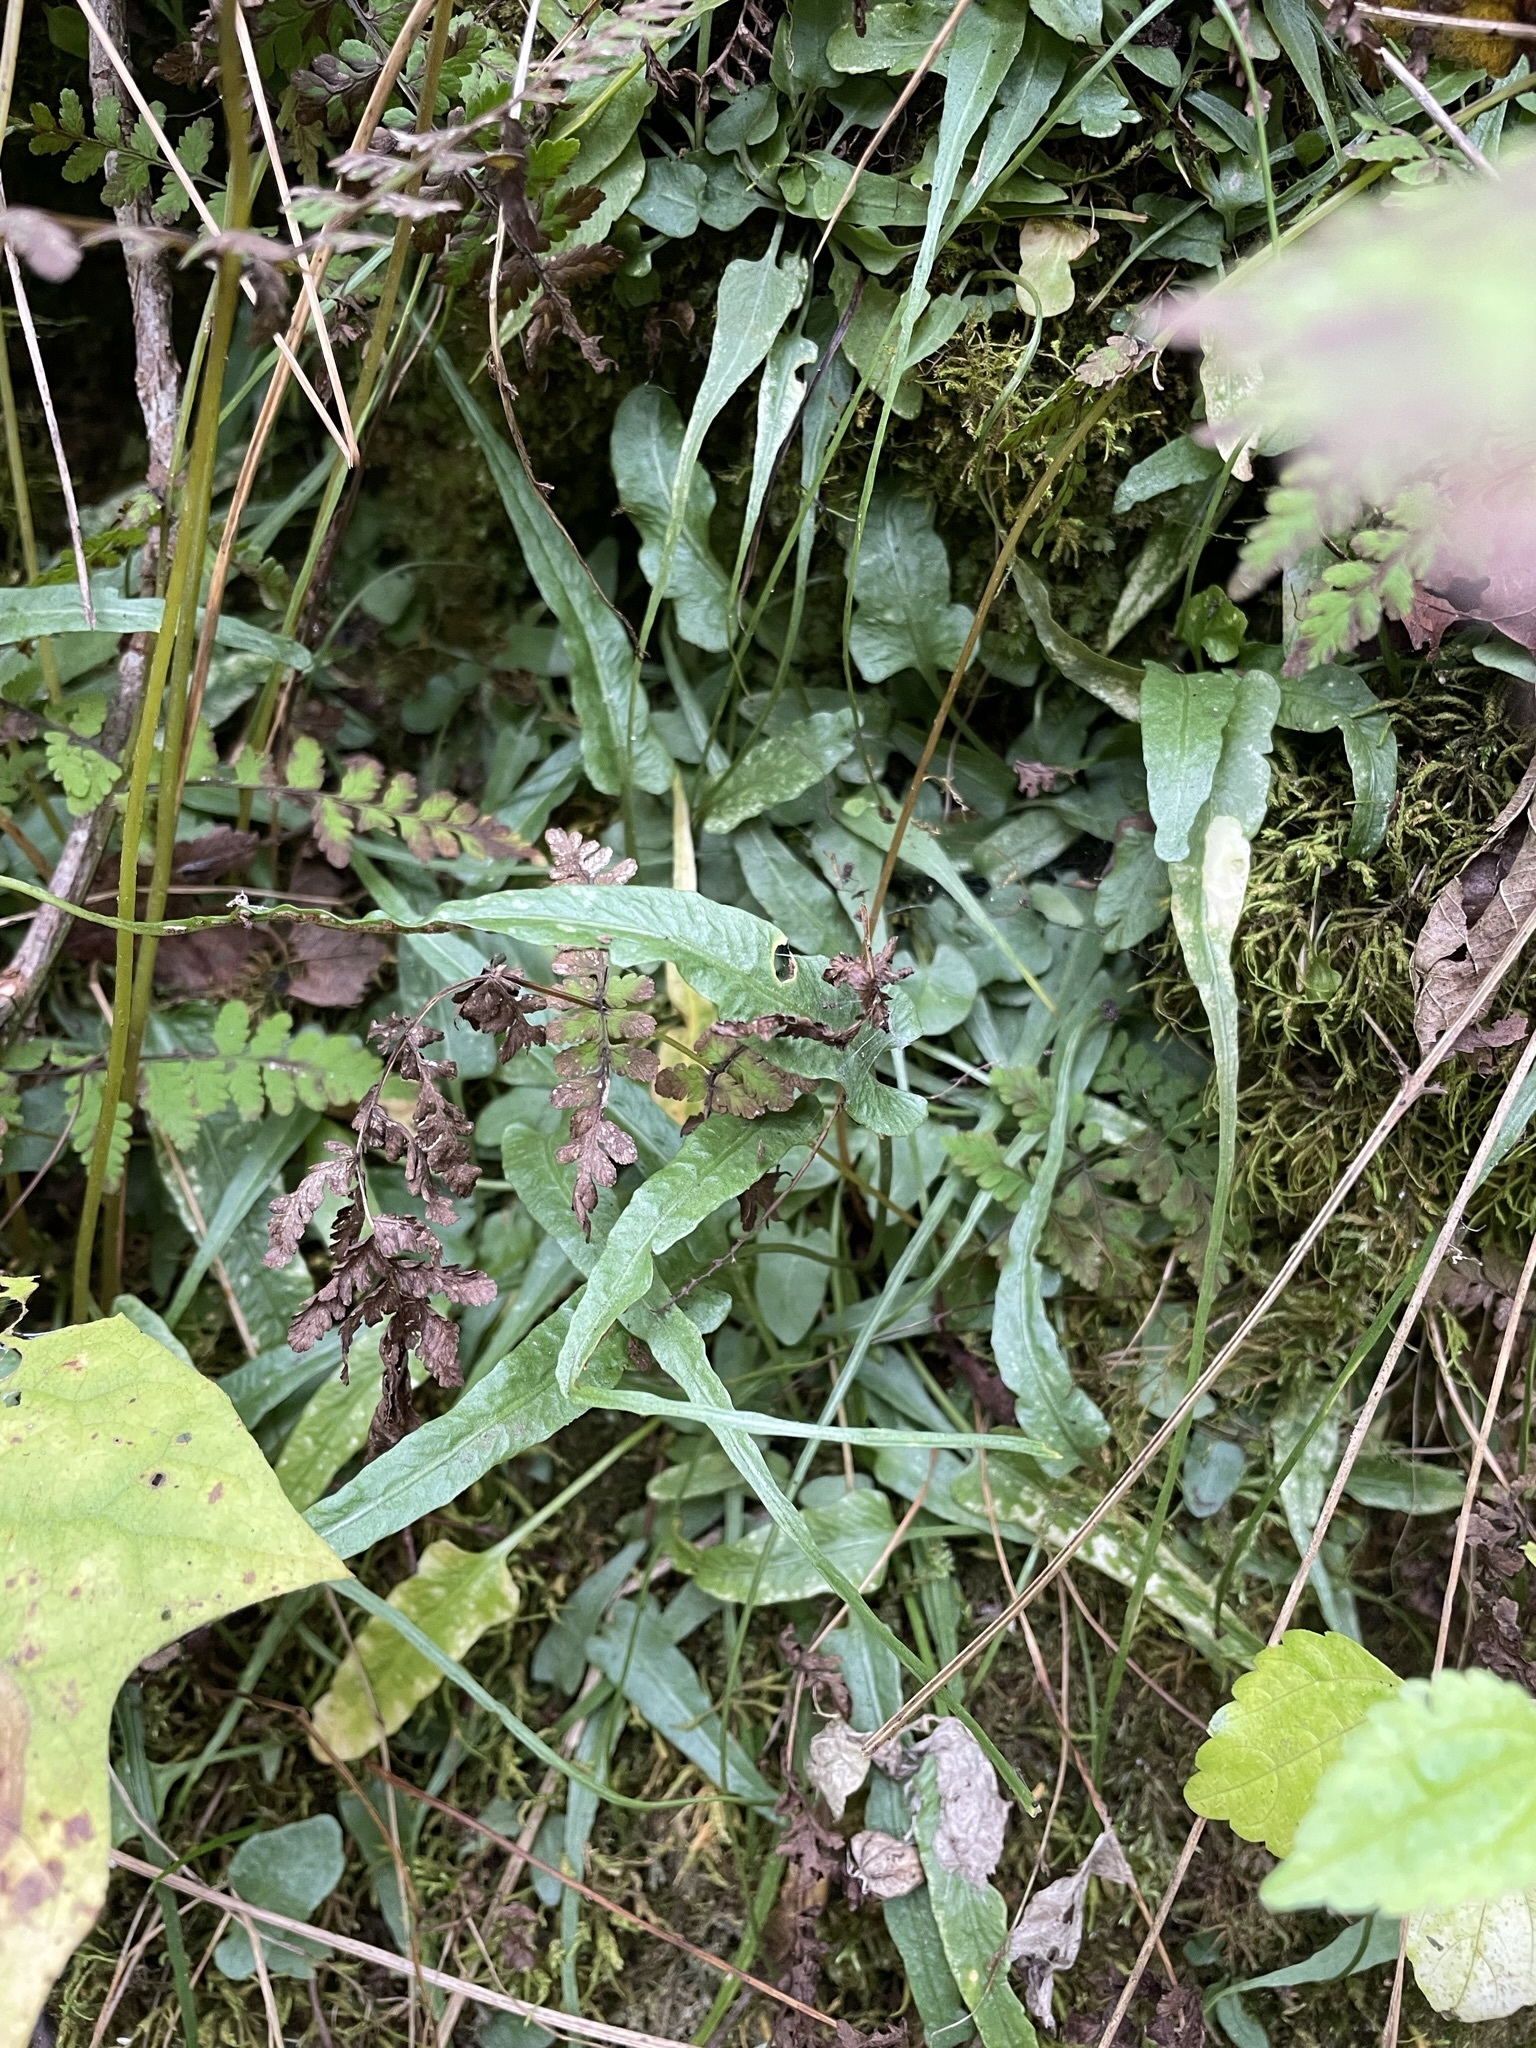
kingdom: Plantae
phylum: Tracheophyta
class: Polypodiopsida
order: Polypodiales
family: Aspleniaceae
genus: Asplenium
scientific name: Asplenium rhizophyllum
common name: Walking fern
